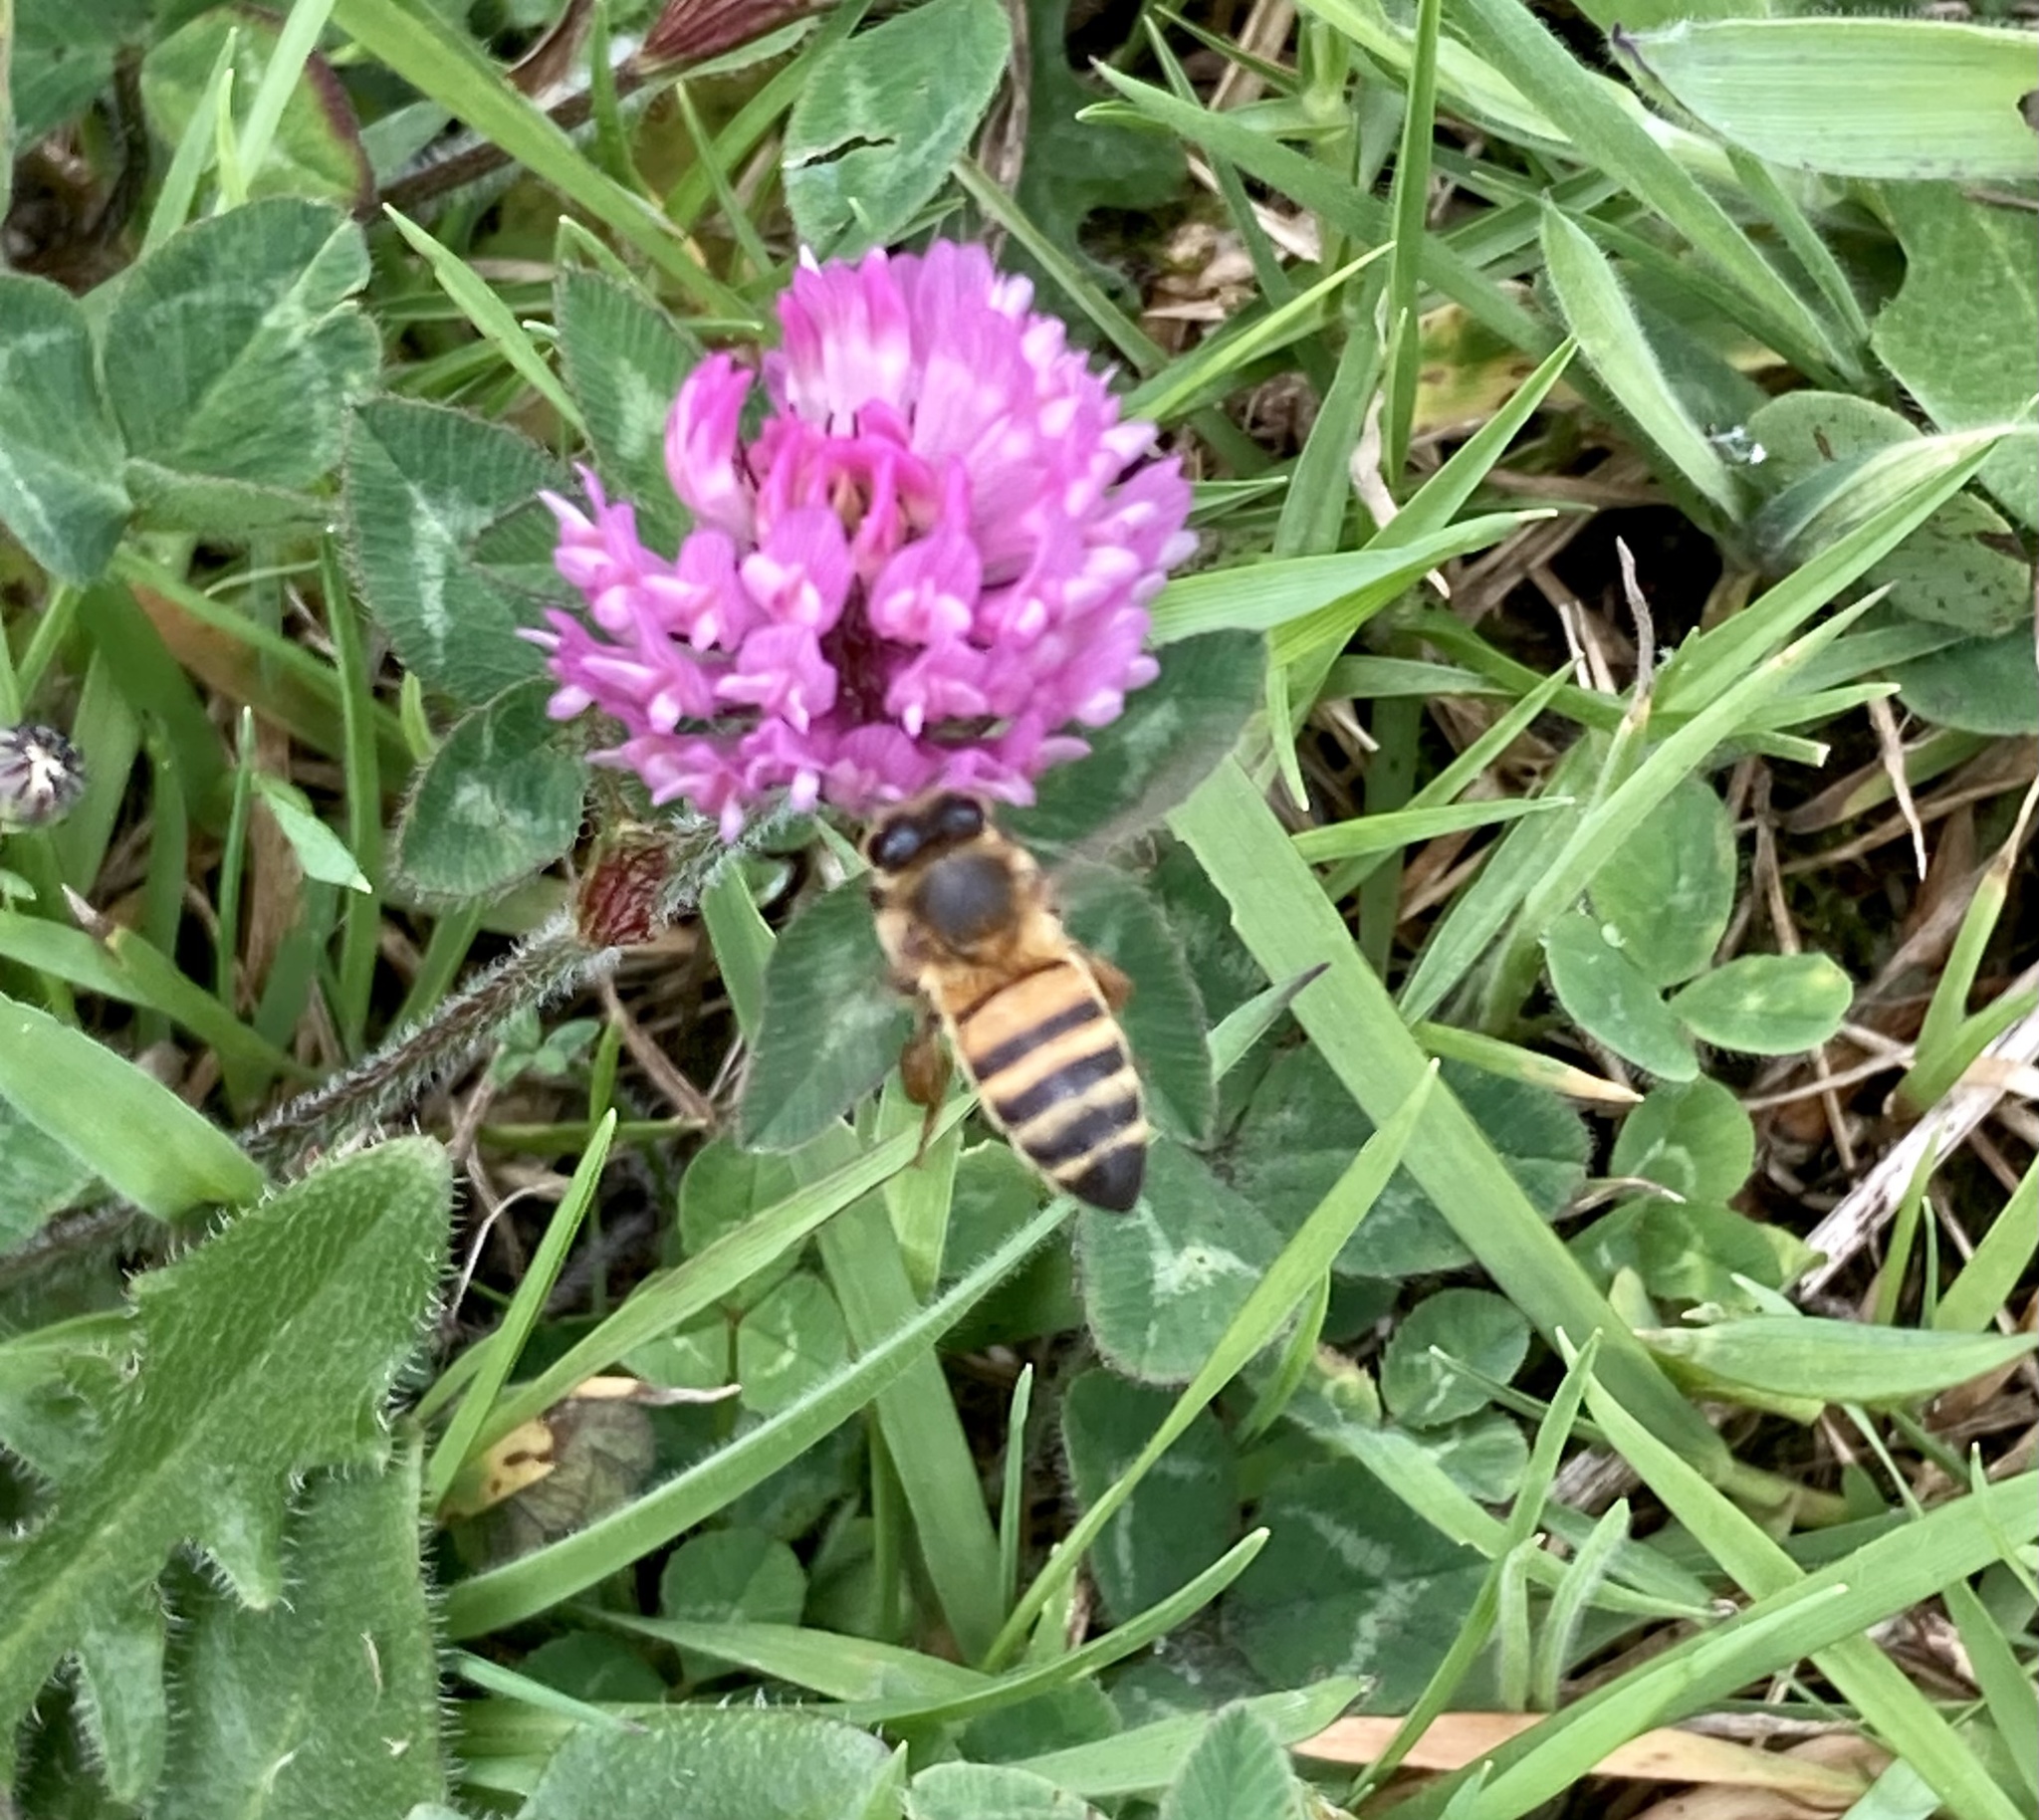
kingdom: Animalia
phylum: Arthropoda
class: Insecta
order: Hymenoptera
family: Apidae
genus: Apis
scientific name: Apis mellifera
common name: Honey bee
